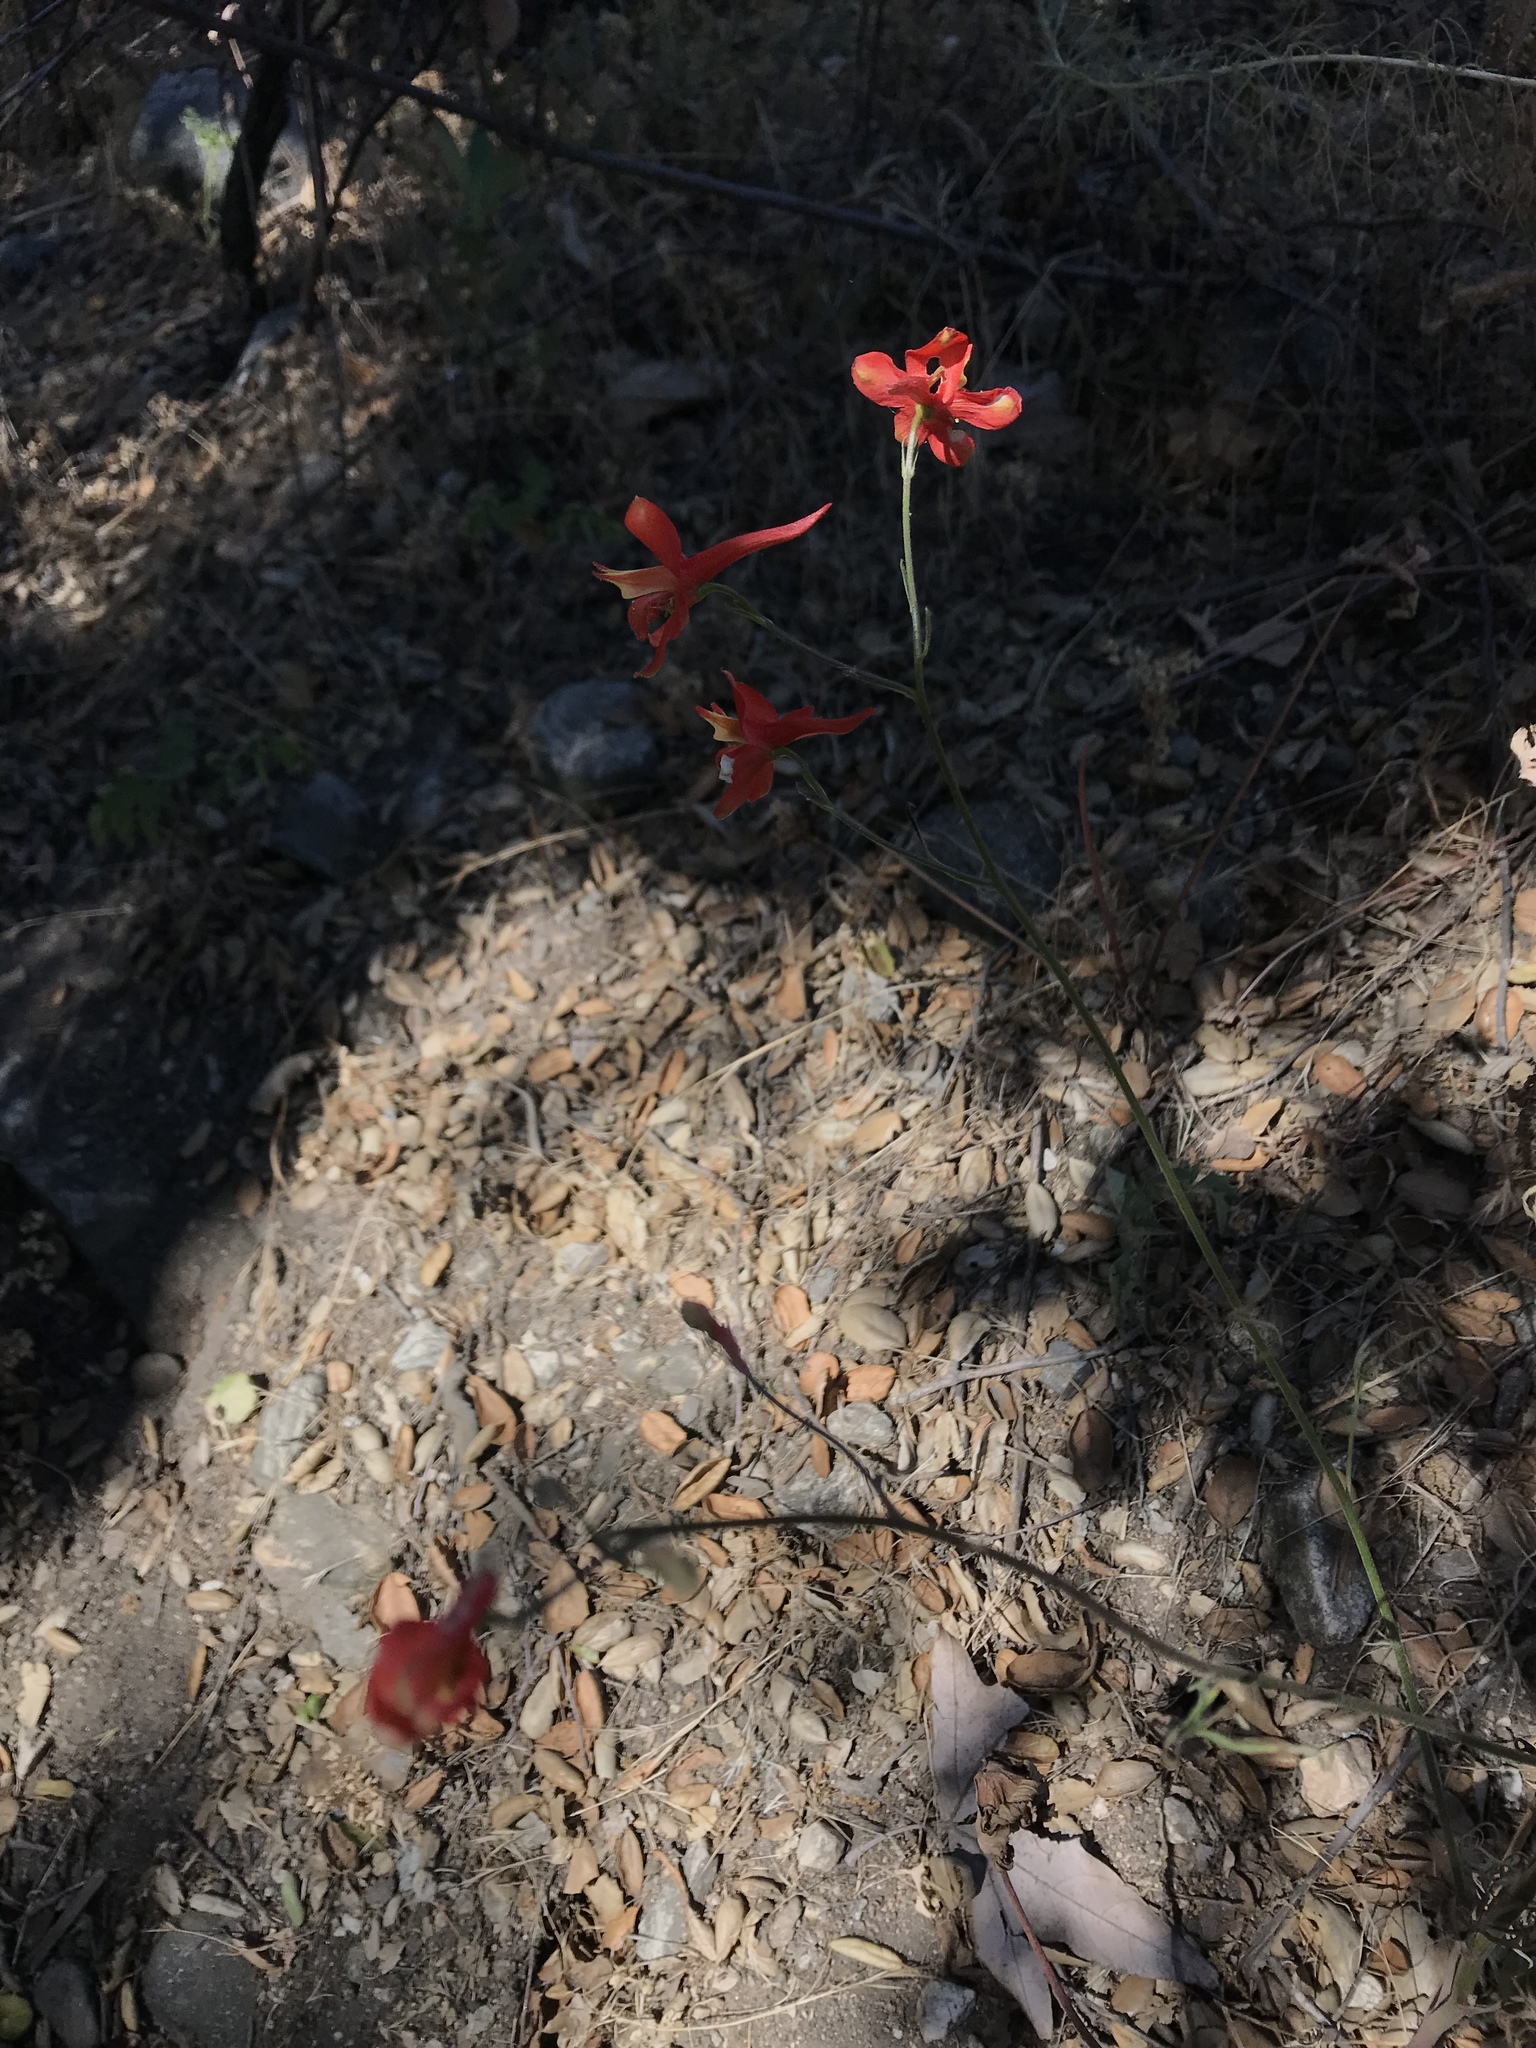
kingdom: Plantae
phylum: Tracheophyta
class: Magnoliopsida
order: Ranunculales
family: Ranunculaceae
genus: Delphinium
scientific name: Delphinium cardinale
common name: Scarlet larkspur
